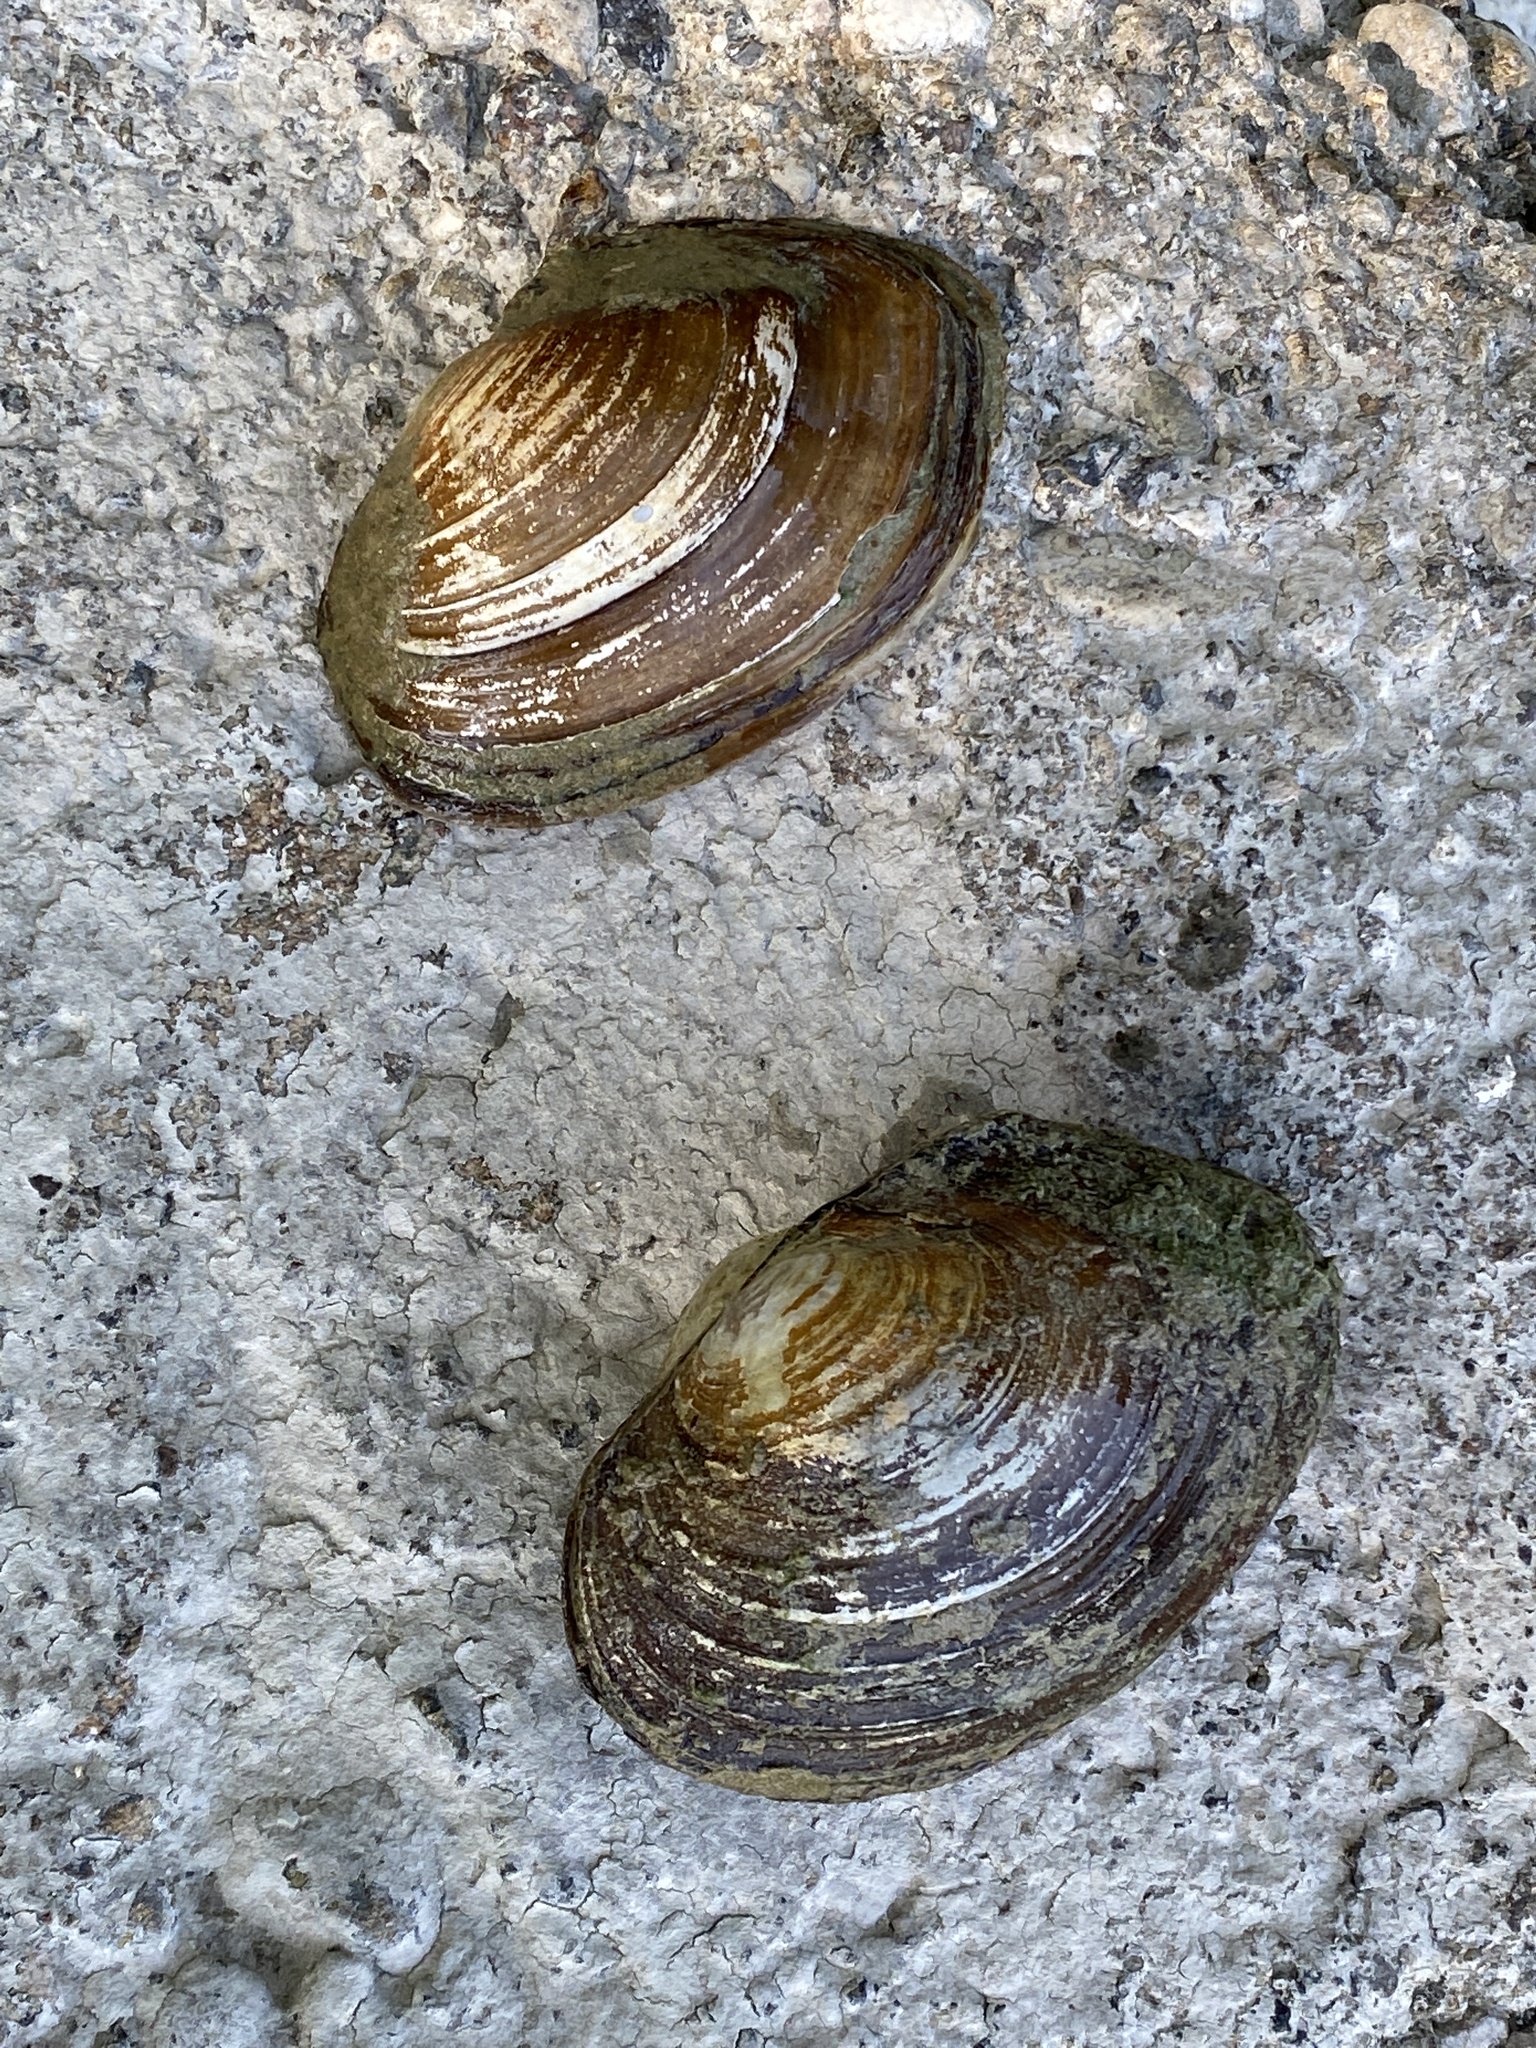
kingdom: Animalia
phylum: Mollusca
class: Bivalvia
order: Unionida
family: Unionidae
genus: Sinanodonta
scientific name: Sinanodonta woodiana
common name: Chinese pond mussel
